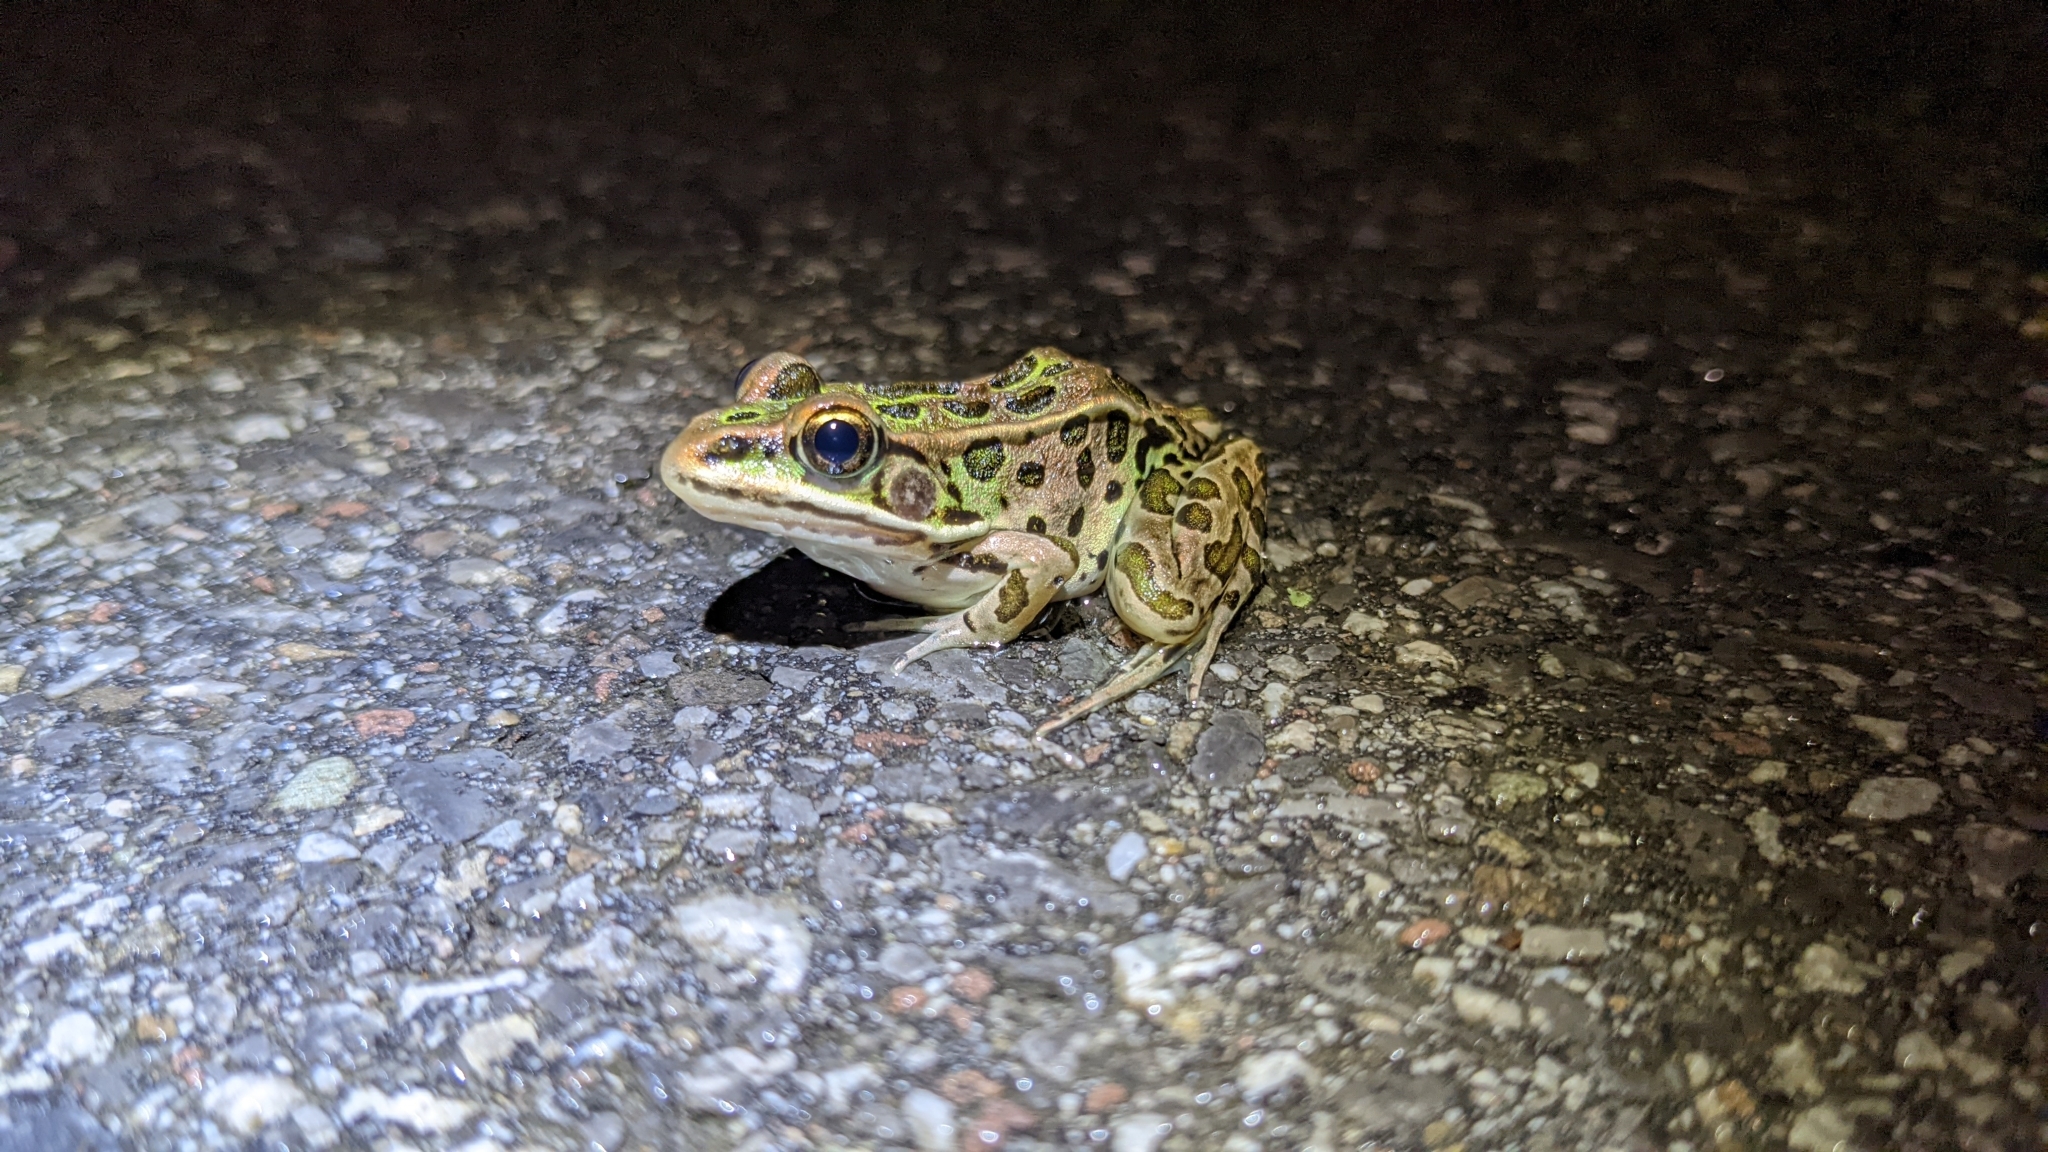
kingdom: Animalia
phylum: Chordata
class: Amphibia
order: Anura
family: Ranidae
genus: Lithobates
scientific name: Lithobates pipiens
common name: Northern leopard frog
